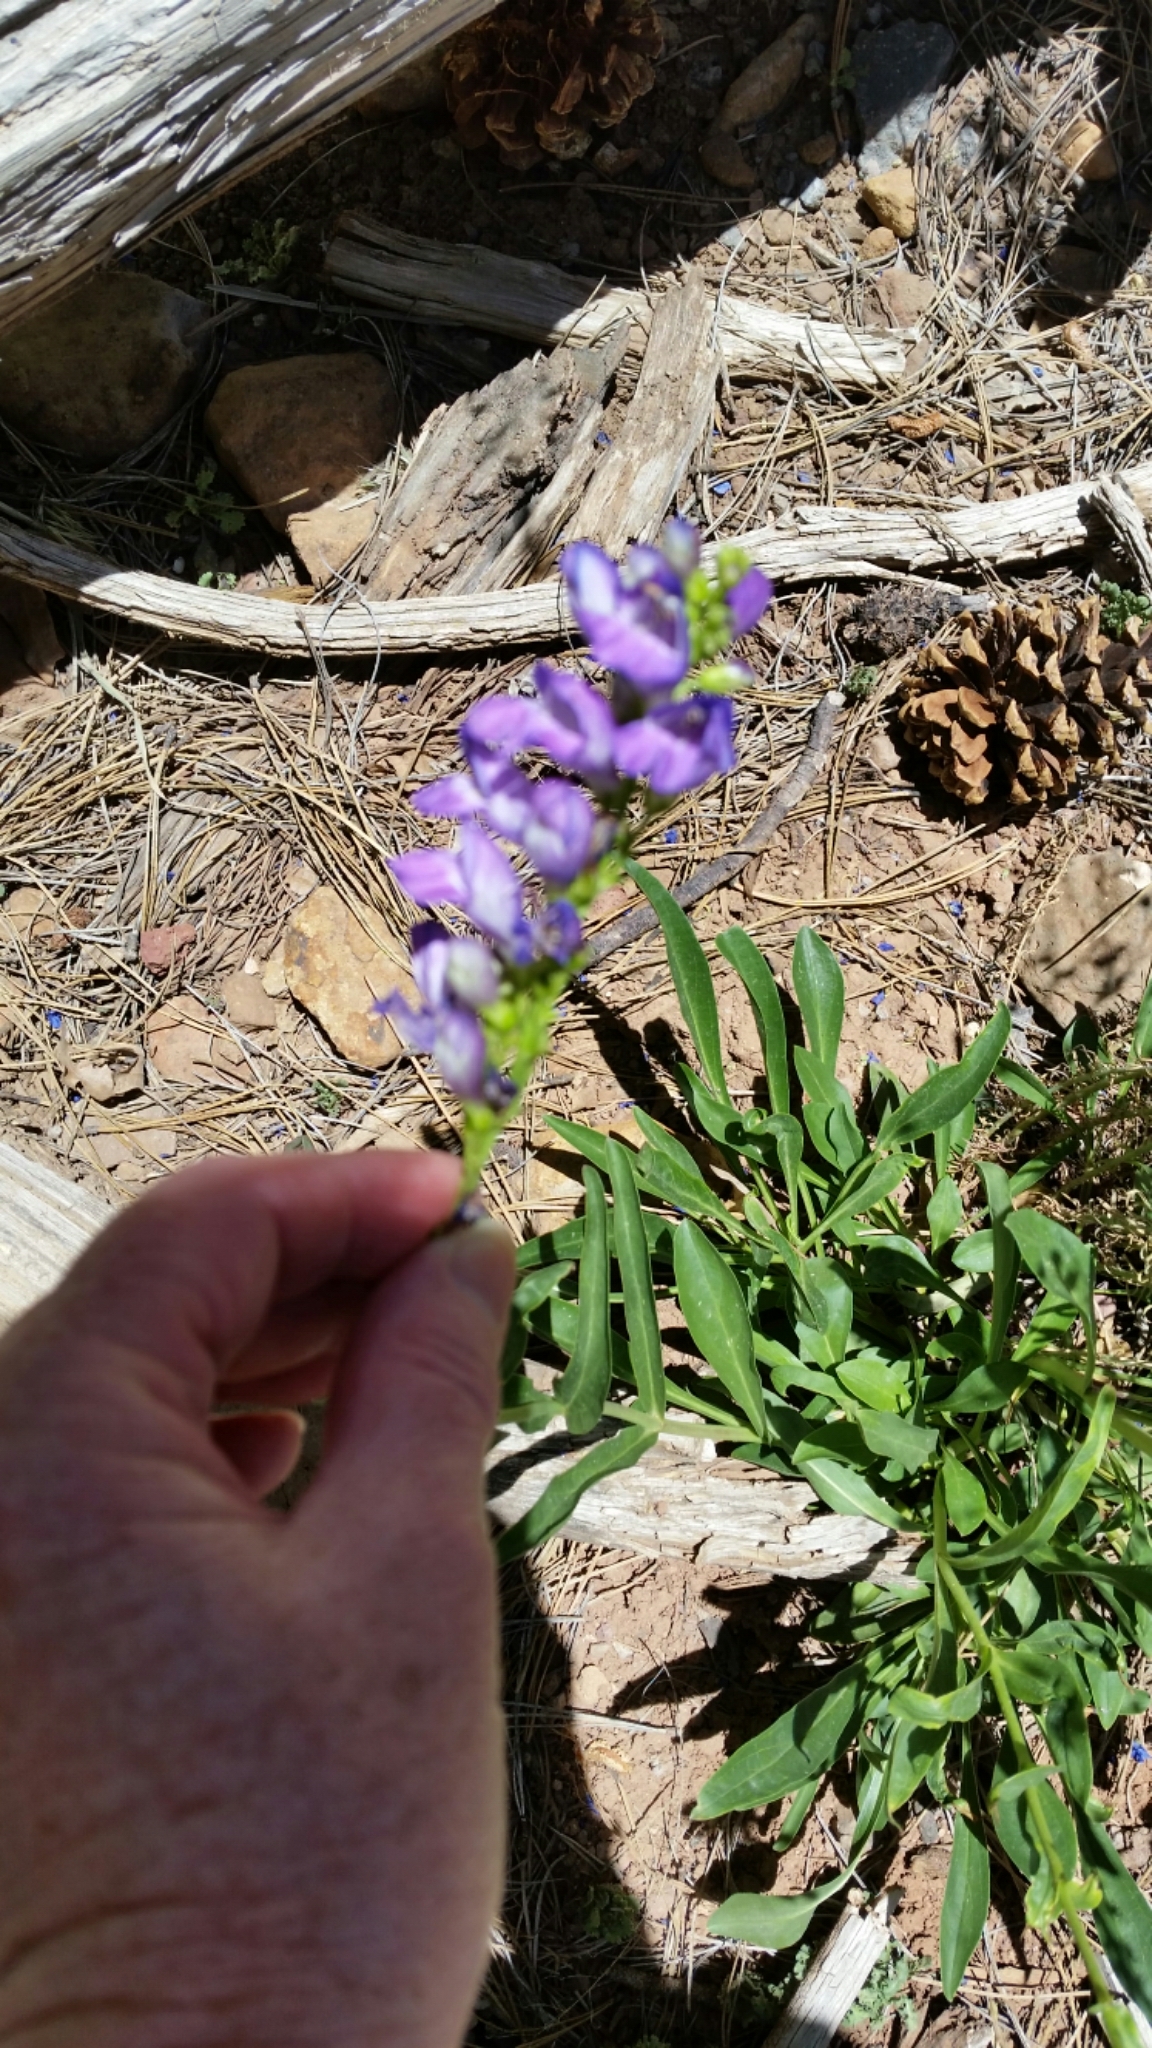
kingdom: Plantae
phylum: Tracheophyta
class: Magnoliopsida
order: Lamiales
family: Plantaginaceae
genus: Penstemon
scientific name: Penstemon strictus
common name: Rocky mountain penstemon
